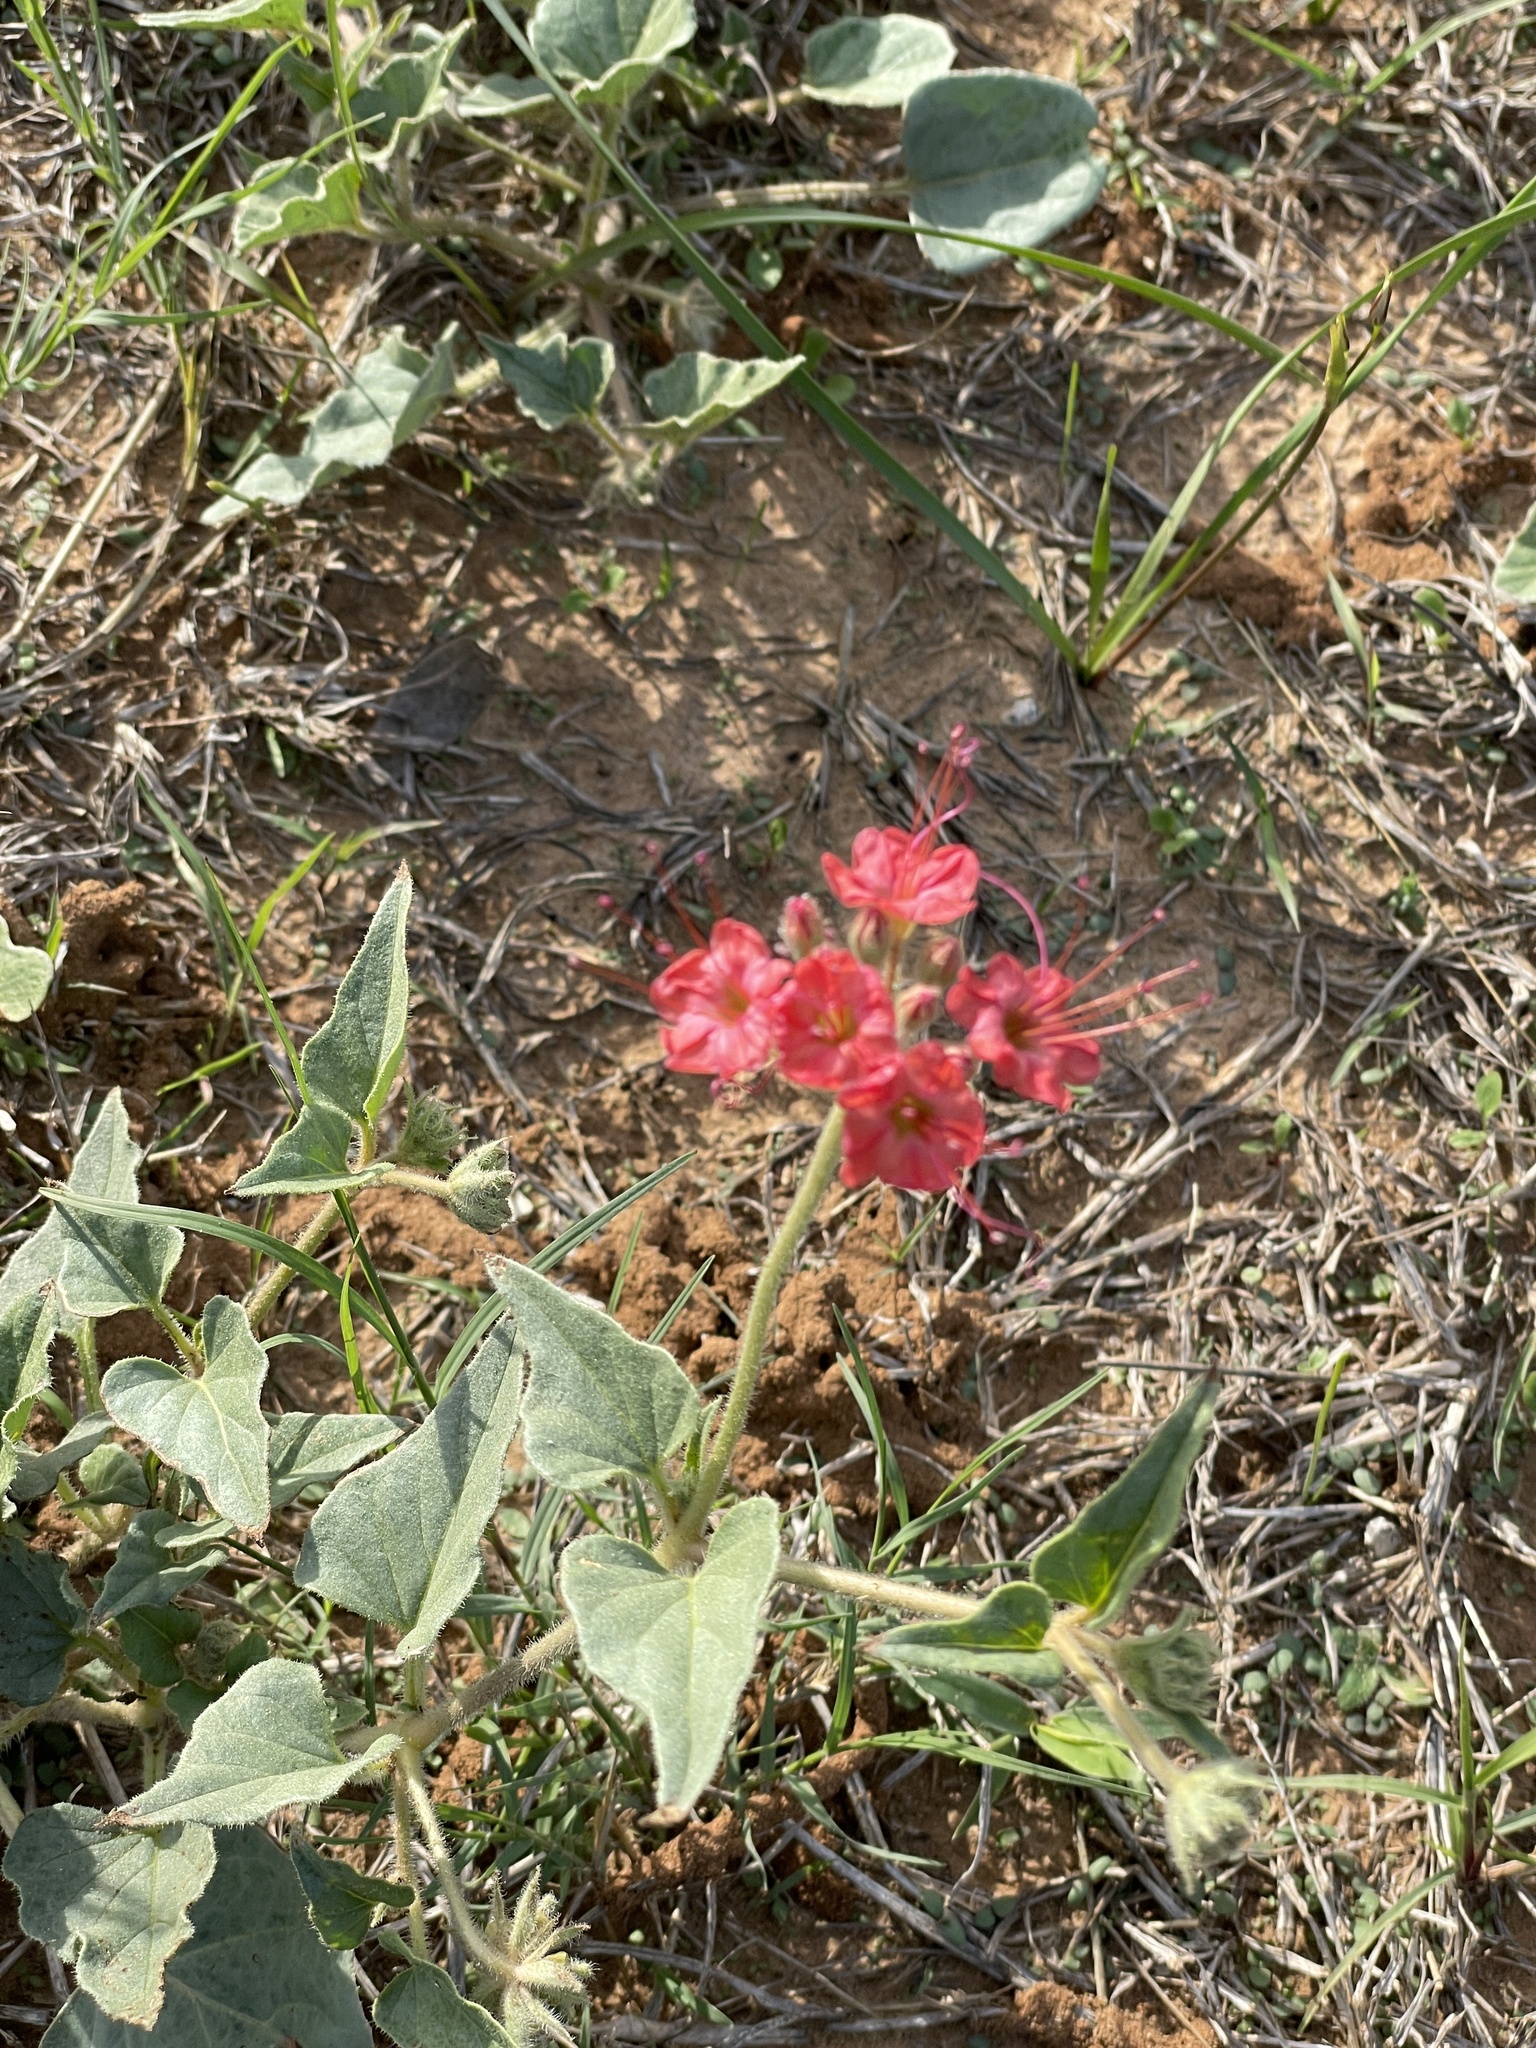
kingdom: Plantae
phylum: Tracheophyta
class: Magnoliopsida
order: Caryophyllales
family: Nyctaginaceae
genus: Nyctaginia
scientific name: Nyctaginia capitata
